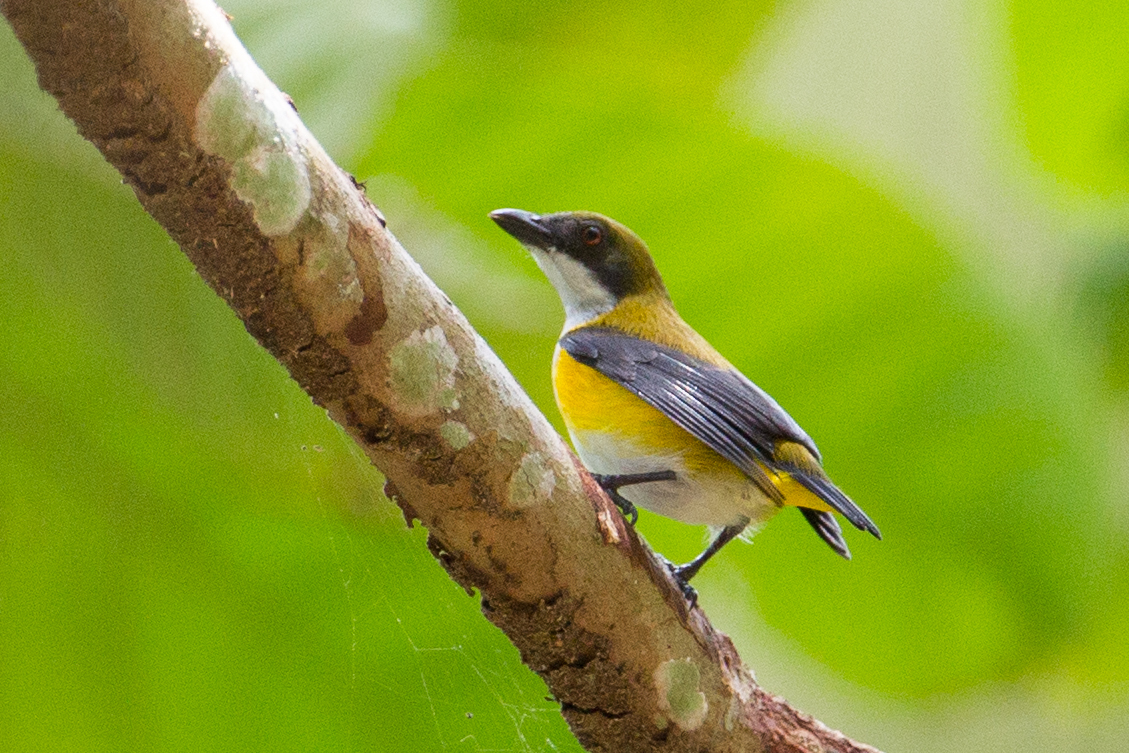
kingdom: Animalia
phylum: Chordata
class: Aves
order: Passeriformes
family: Dicaeidae
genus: Dicaeum
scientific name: Dicaeum aureolimbatum
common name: Yellow-sided flowerpecker
